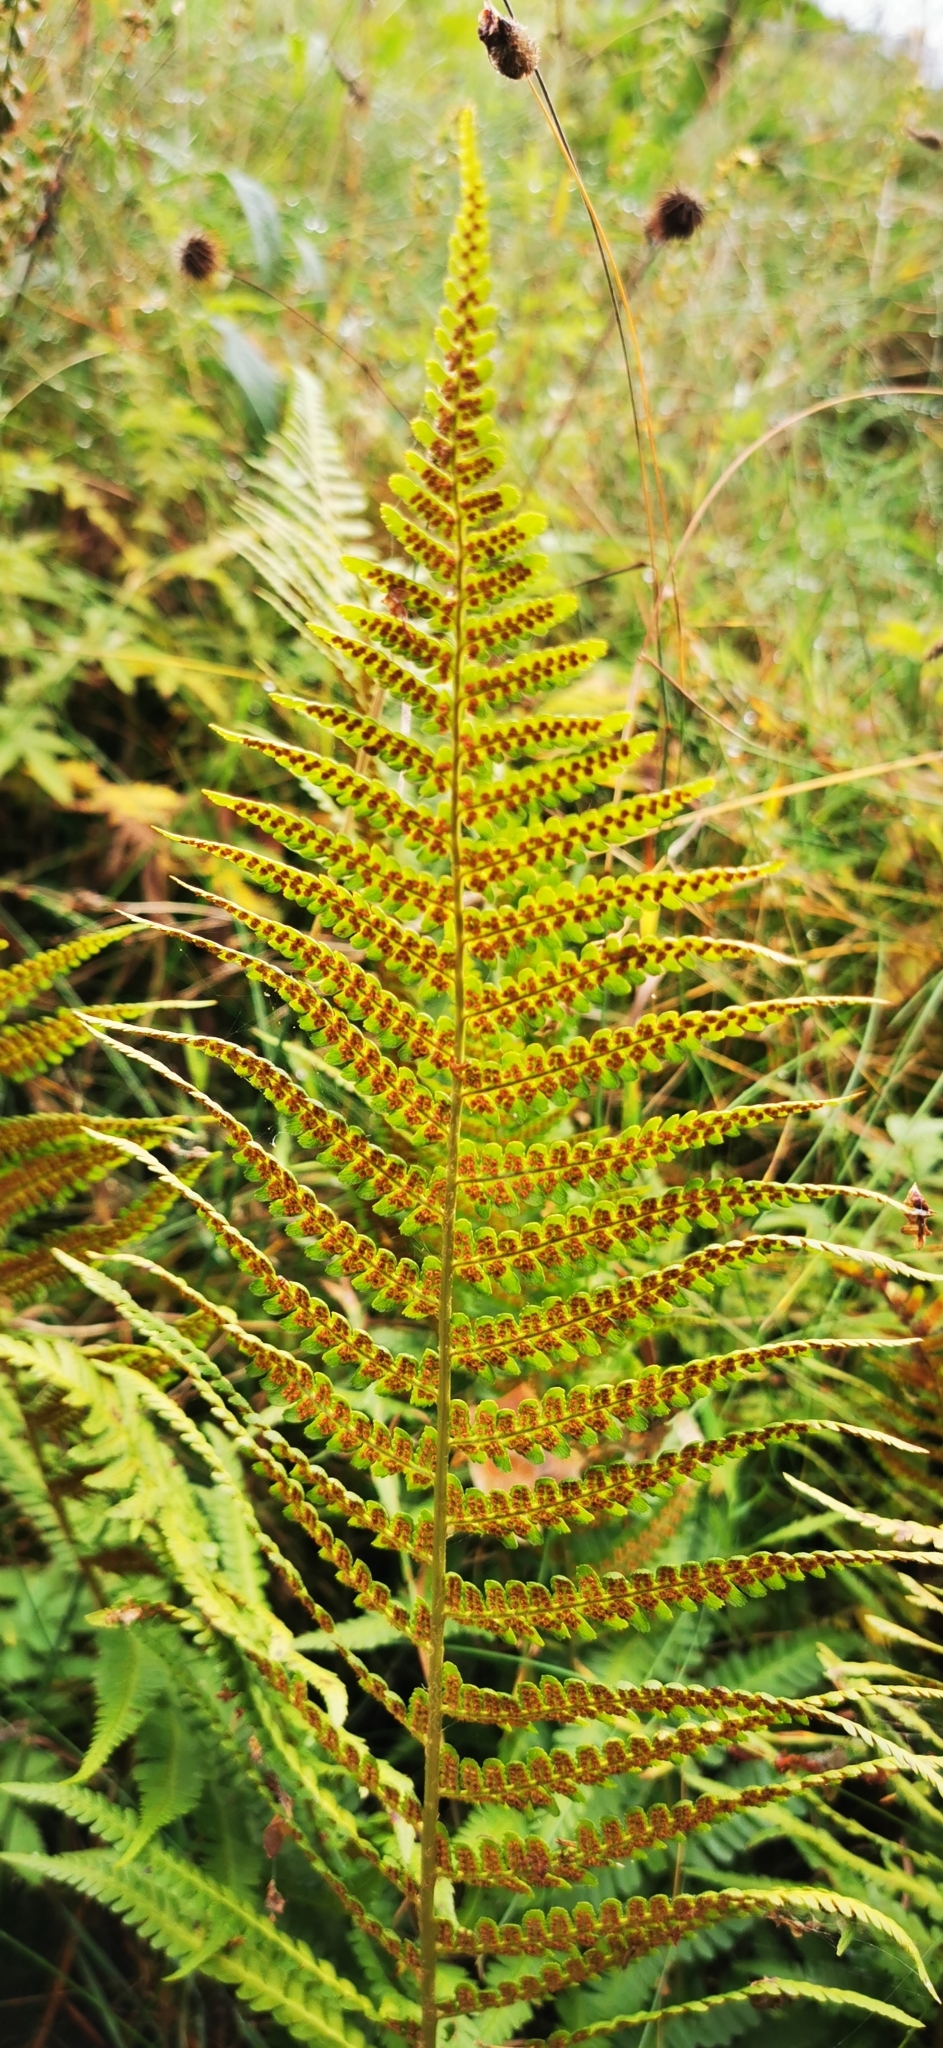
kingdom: Plantae
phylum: Tracheophyta
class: Polypodiopsida
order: Polypodiales
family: Dryopteridaceae
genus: Dryopteris
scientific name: Dryopteris filix-mas
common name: Male fern
